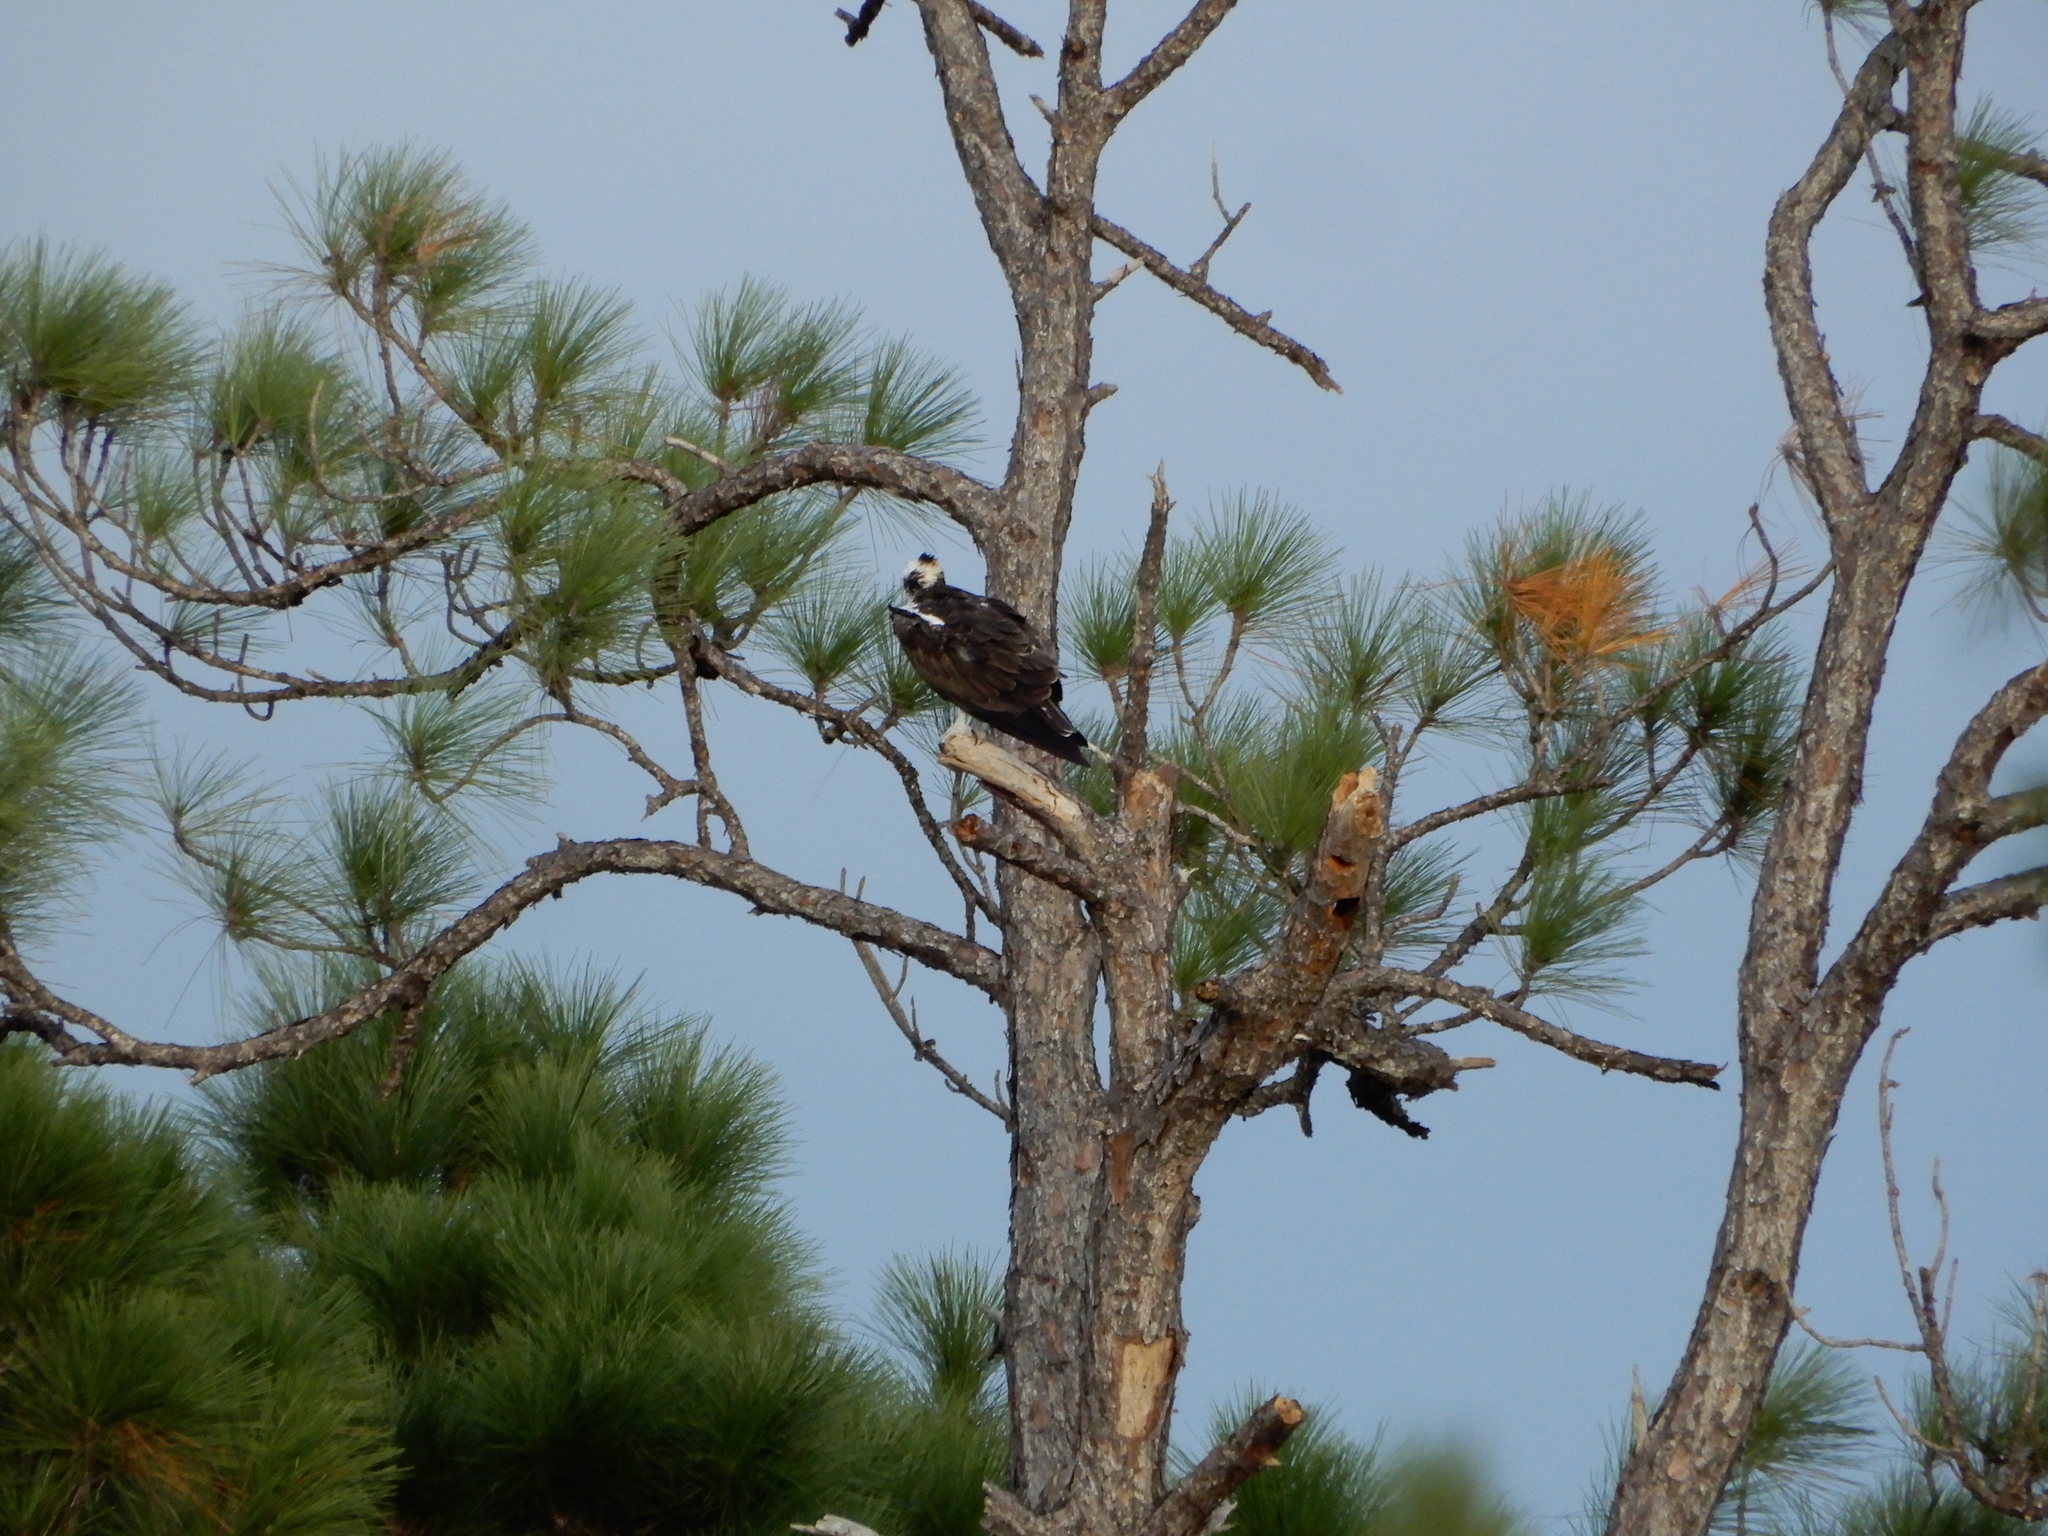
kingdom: Animalia
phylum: Chordata
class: Aves
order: Accipitriformes
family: Pandionidae
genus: Pandion
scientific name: Pandion haliaetus
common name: Osprey
